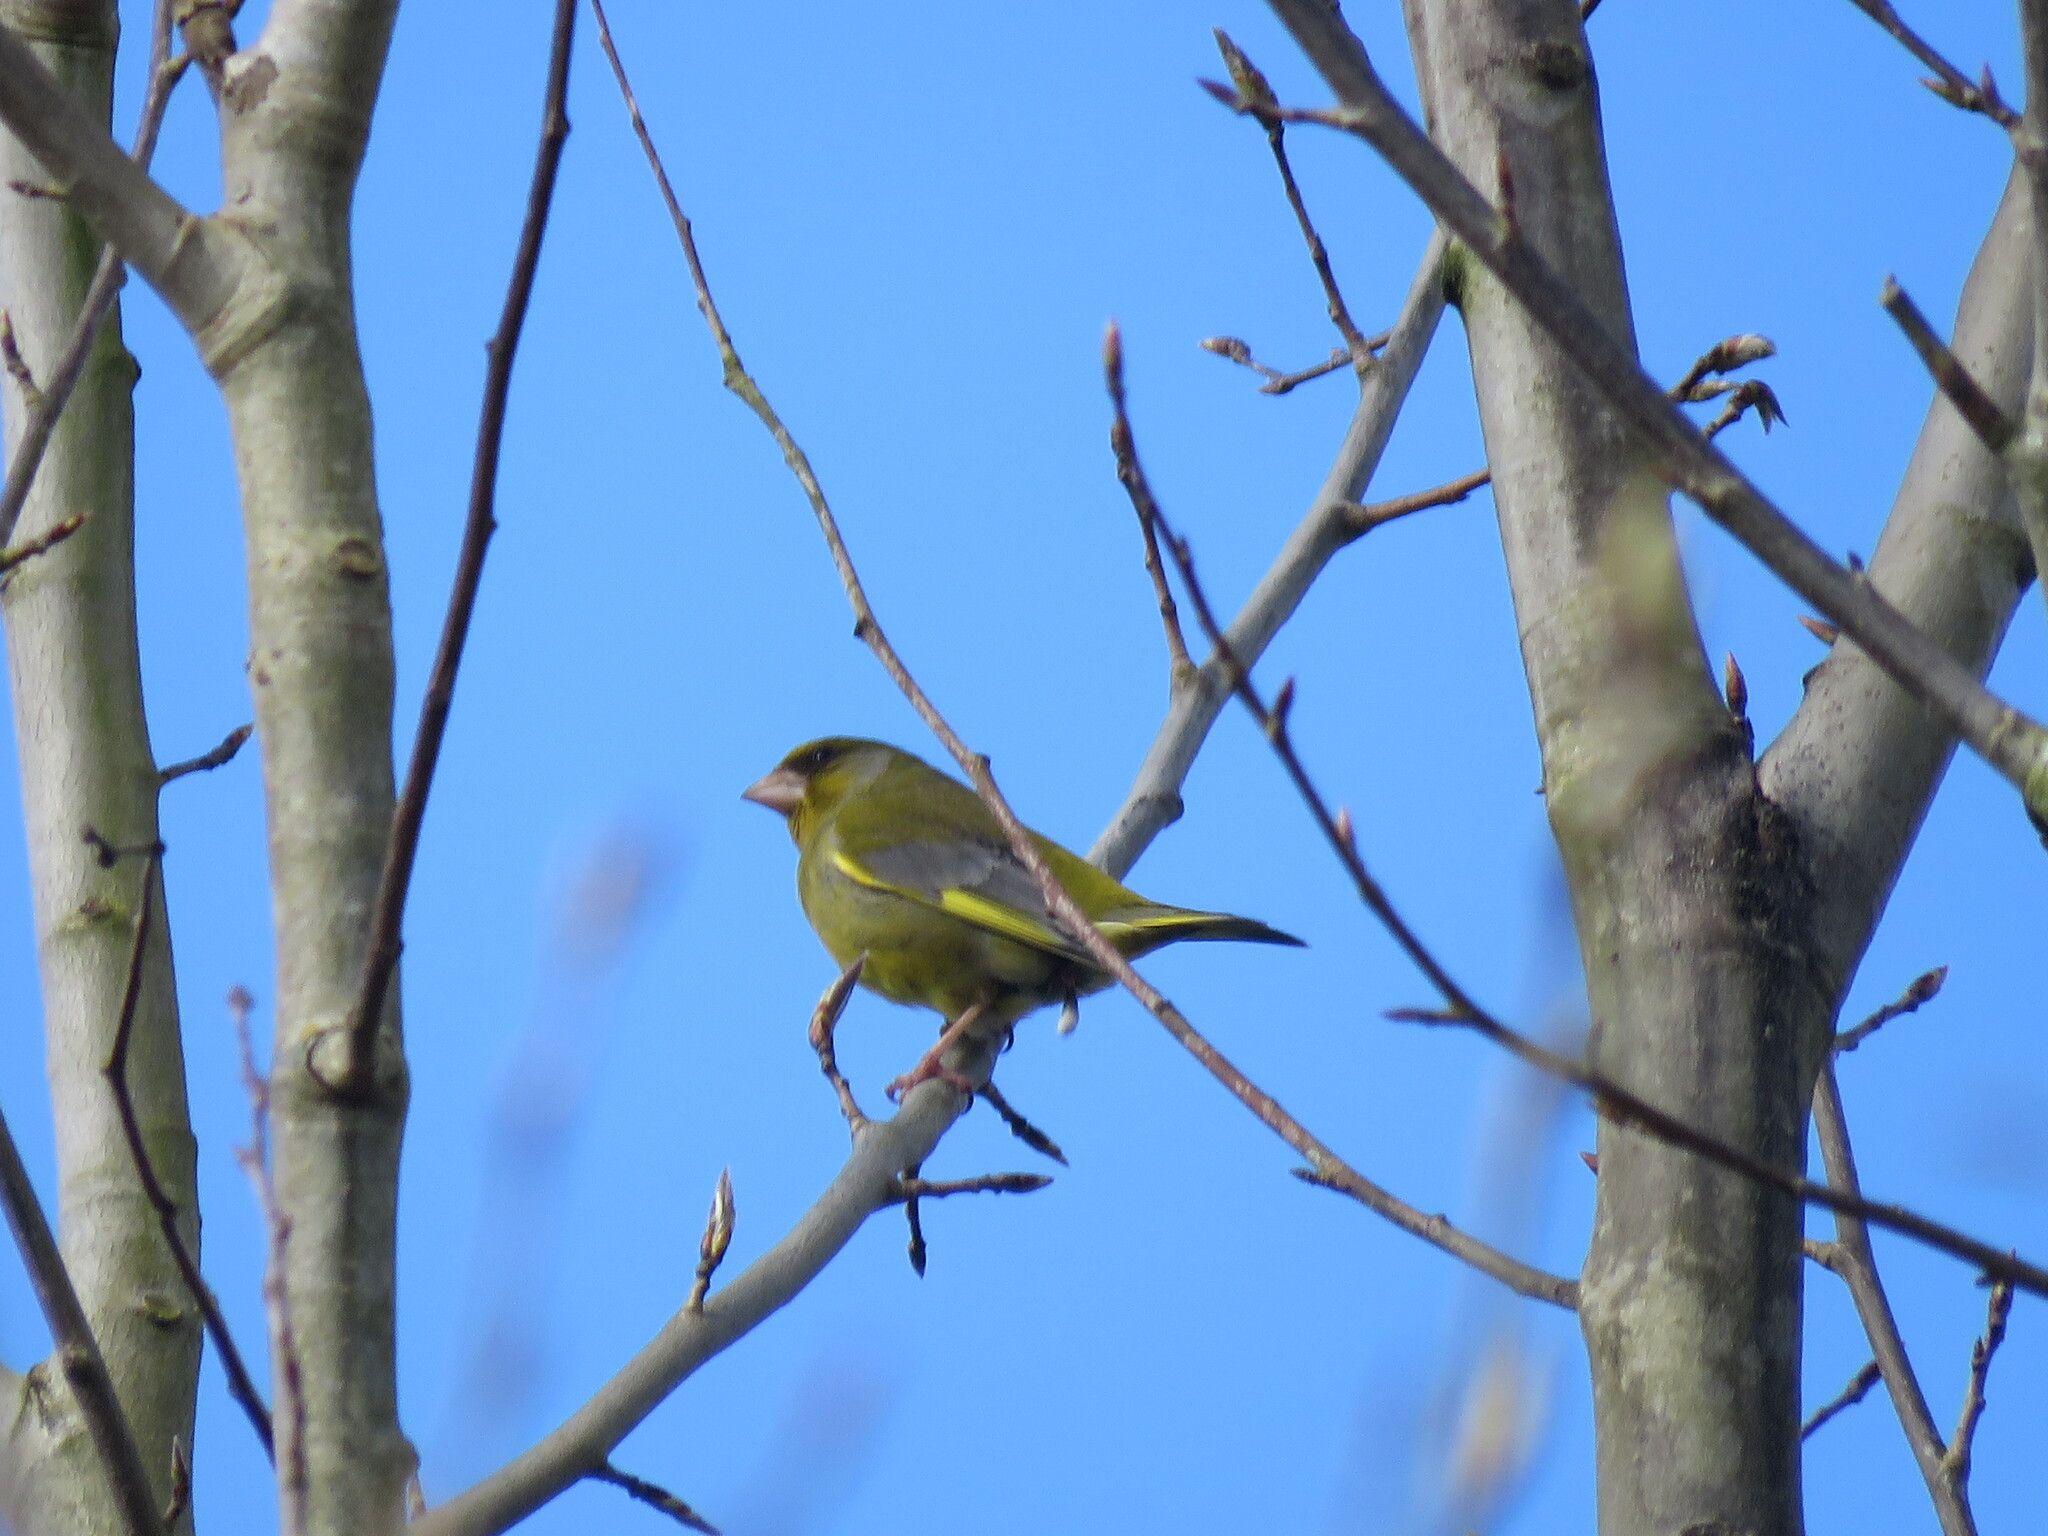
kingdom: Plantae
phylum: Tracheophyta
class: Liliopsida
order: Poales
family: Poaceae
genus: Chloris
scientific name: Chloris chloris
